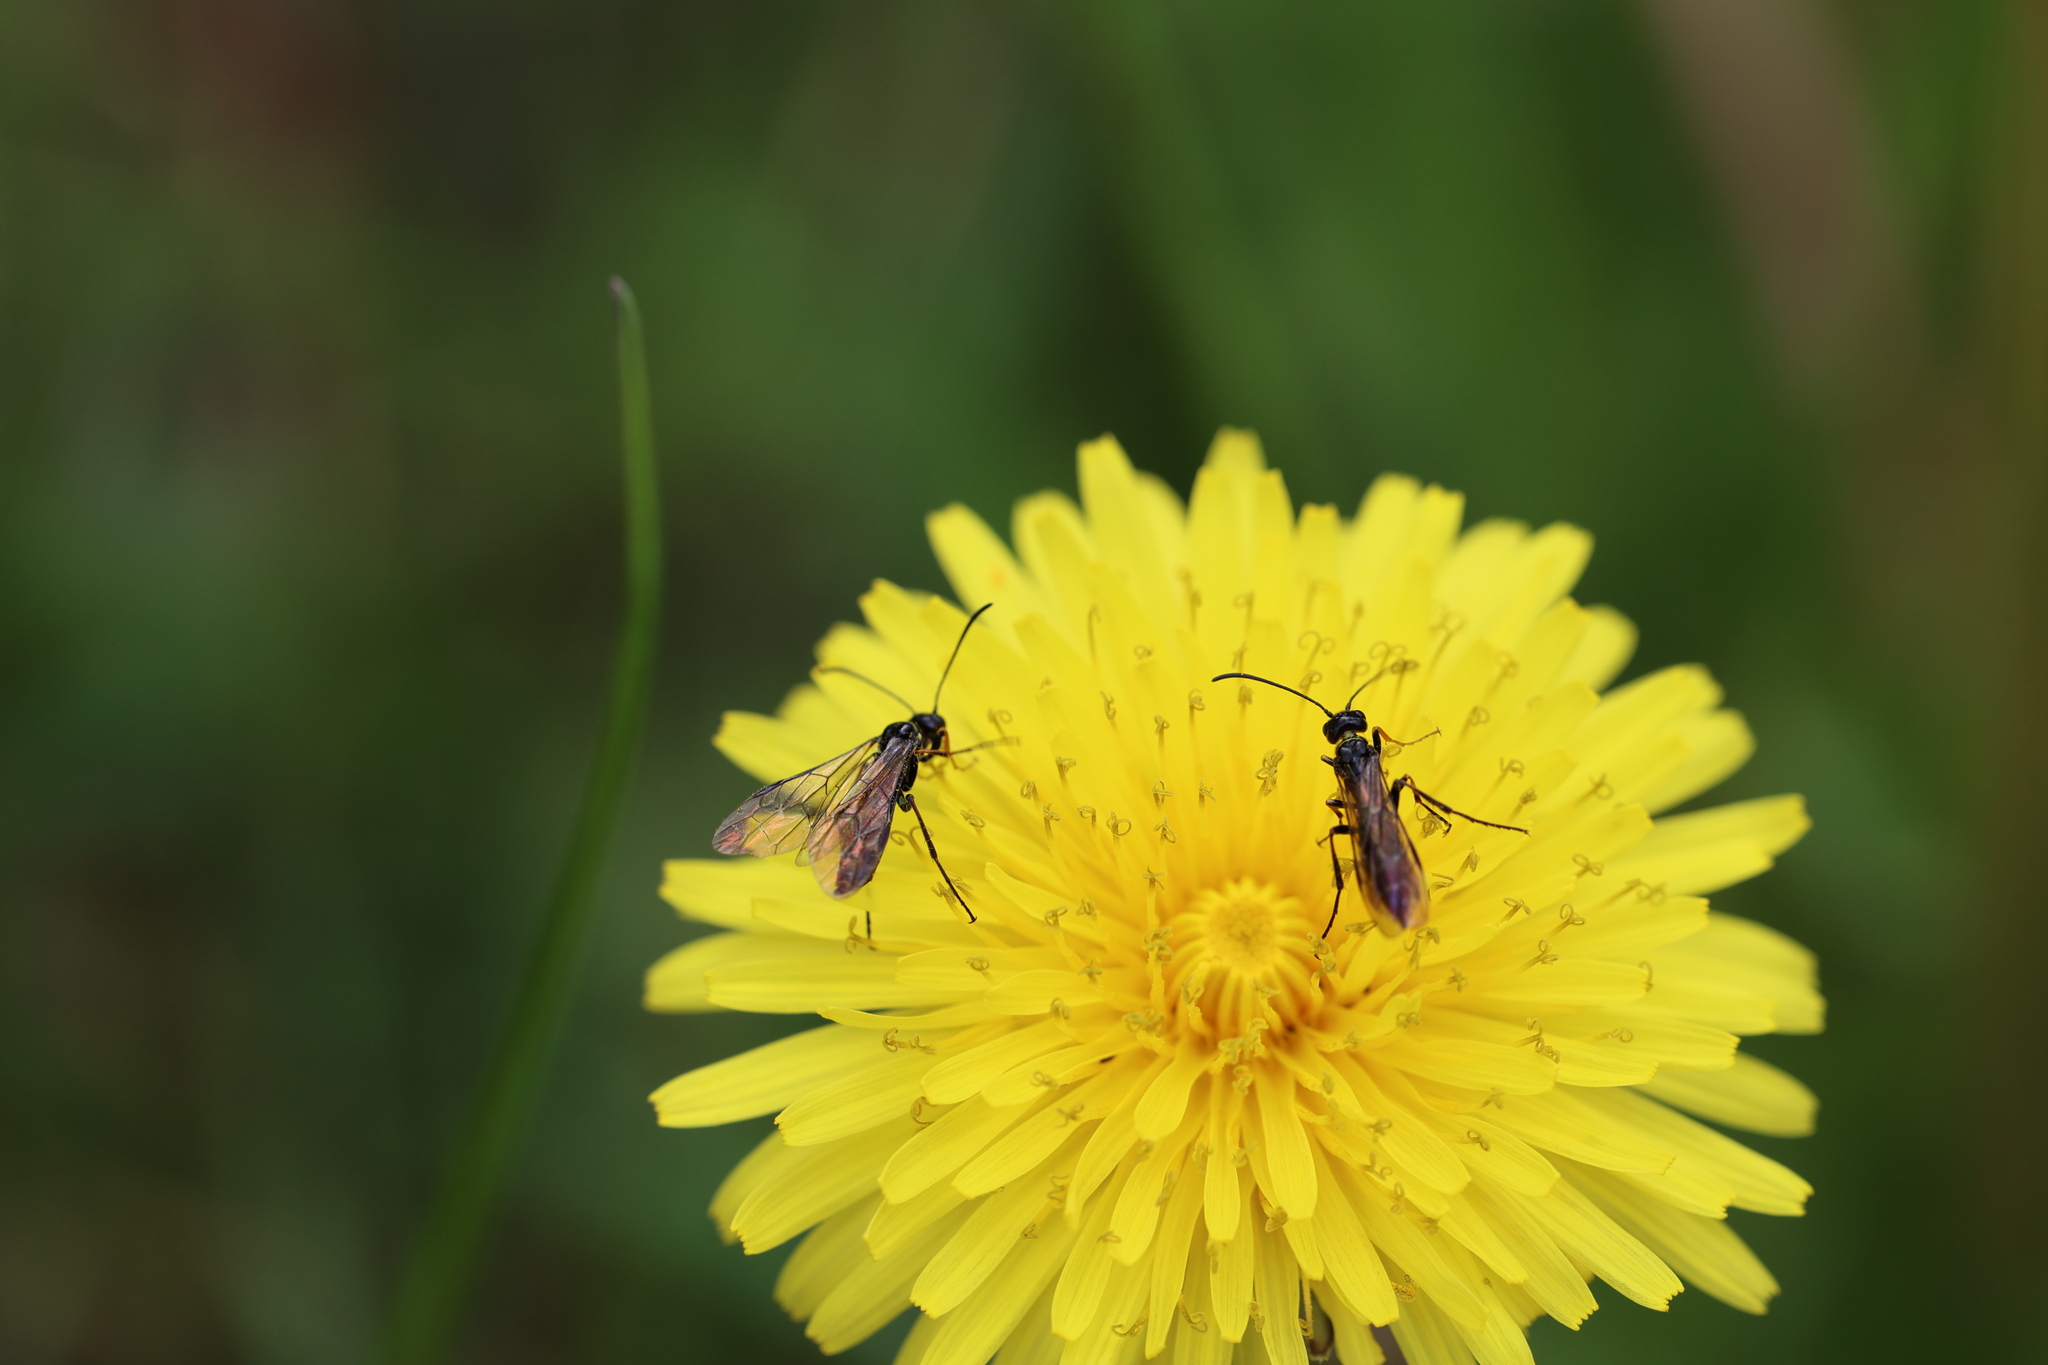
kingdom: Animalia
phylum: Arthropoda
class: Insecta
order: Hymenoptera
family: Cephidae
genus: Cephus
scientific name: Cephus pygmeus
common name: Wasp
